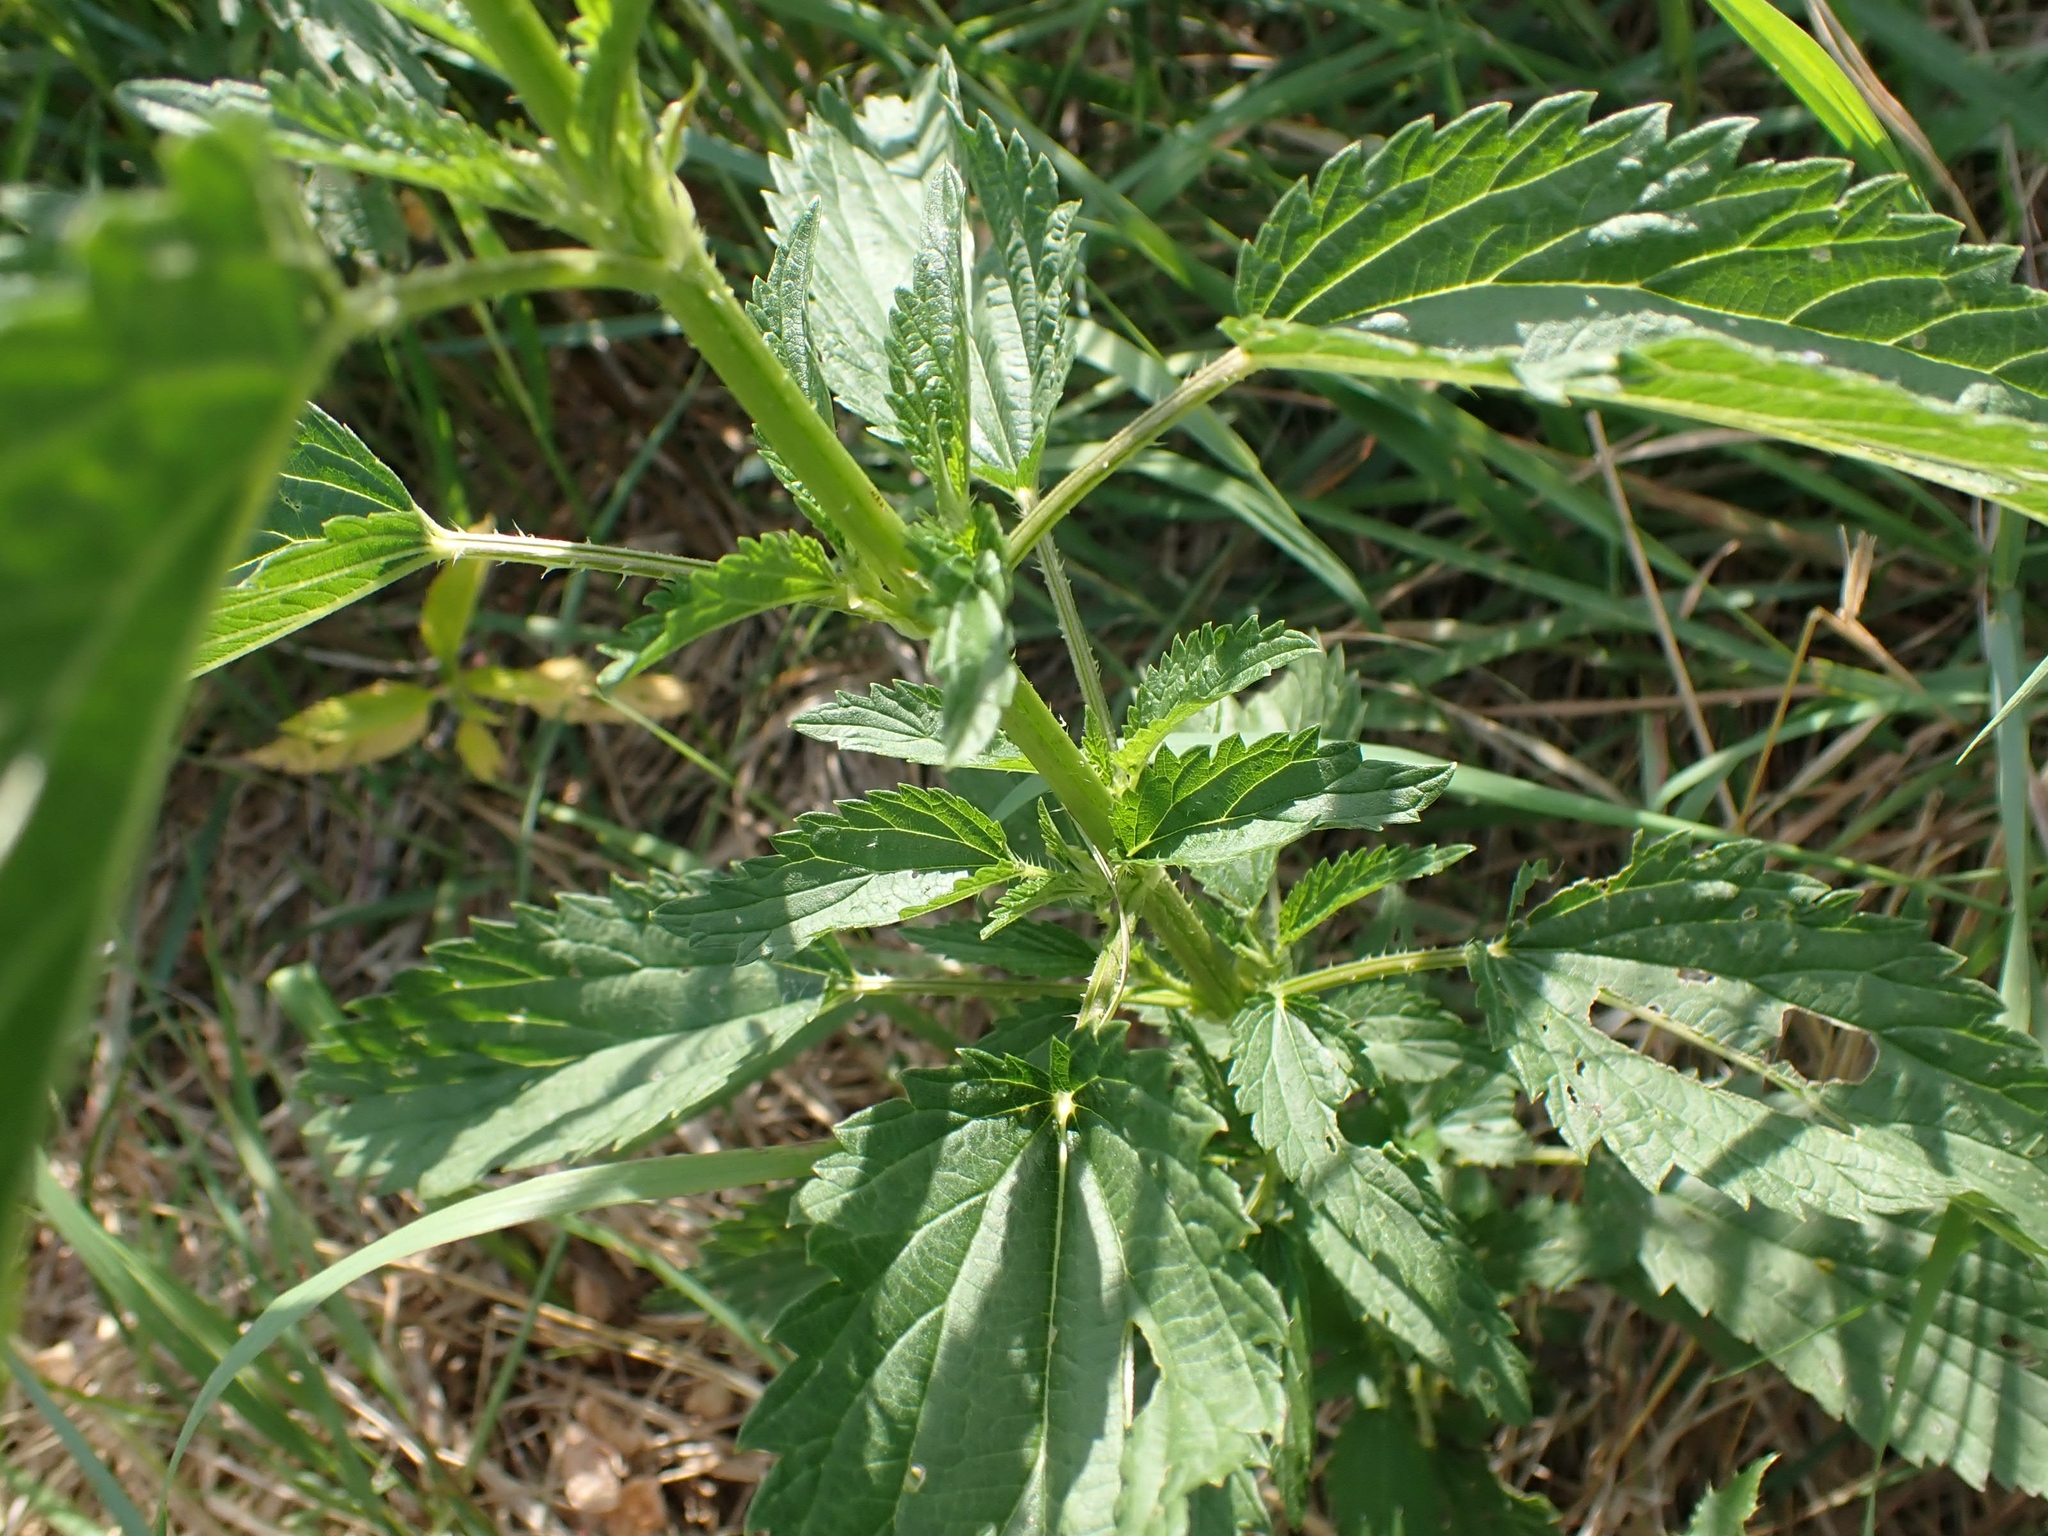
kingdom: Plantae
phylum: Tracheophyta
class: Magnoliopsida
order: Rosales
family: Urticaceae
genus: Urtica
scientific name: Urtica gracilis
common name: Slender stinging nettle
